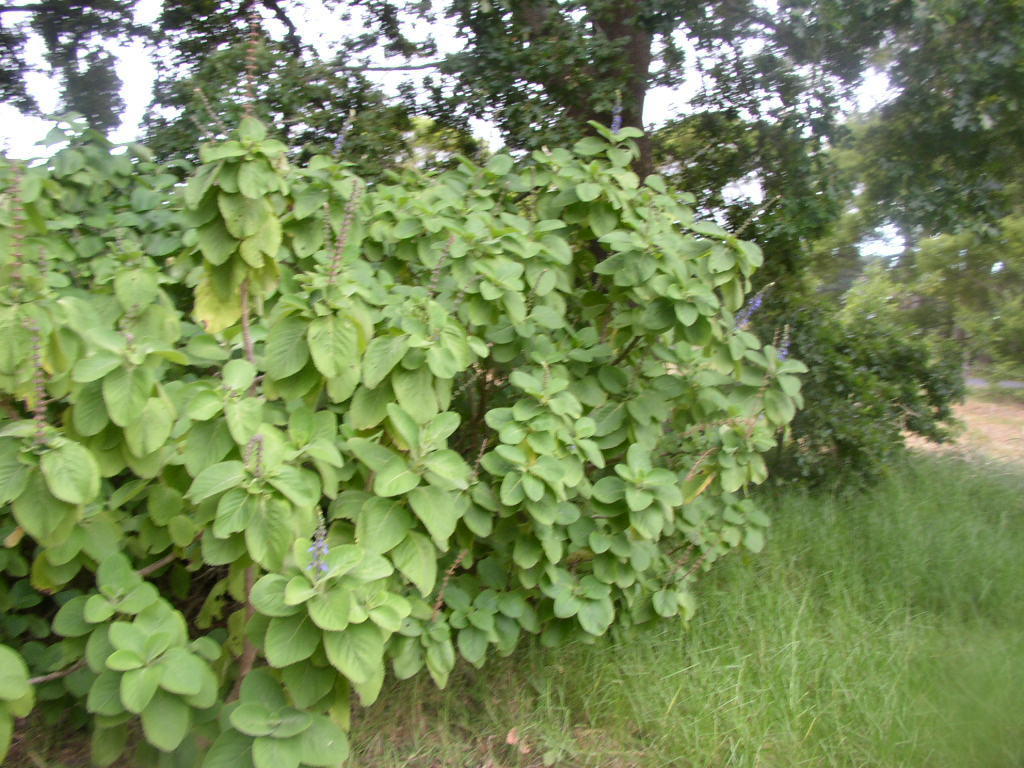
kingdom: Plantae
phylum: Tracheophyta
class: Magnoliopsida
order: Lamiales
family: Lamiaceae
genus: Coleus
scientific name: Coleus barbatus
